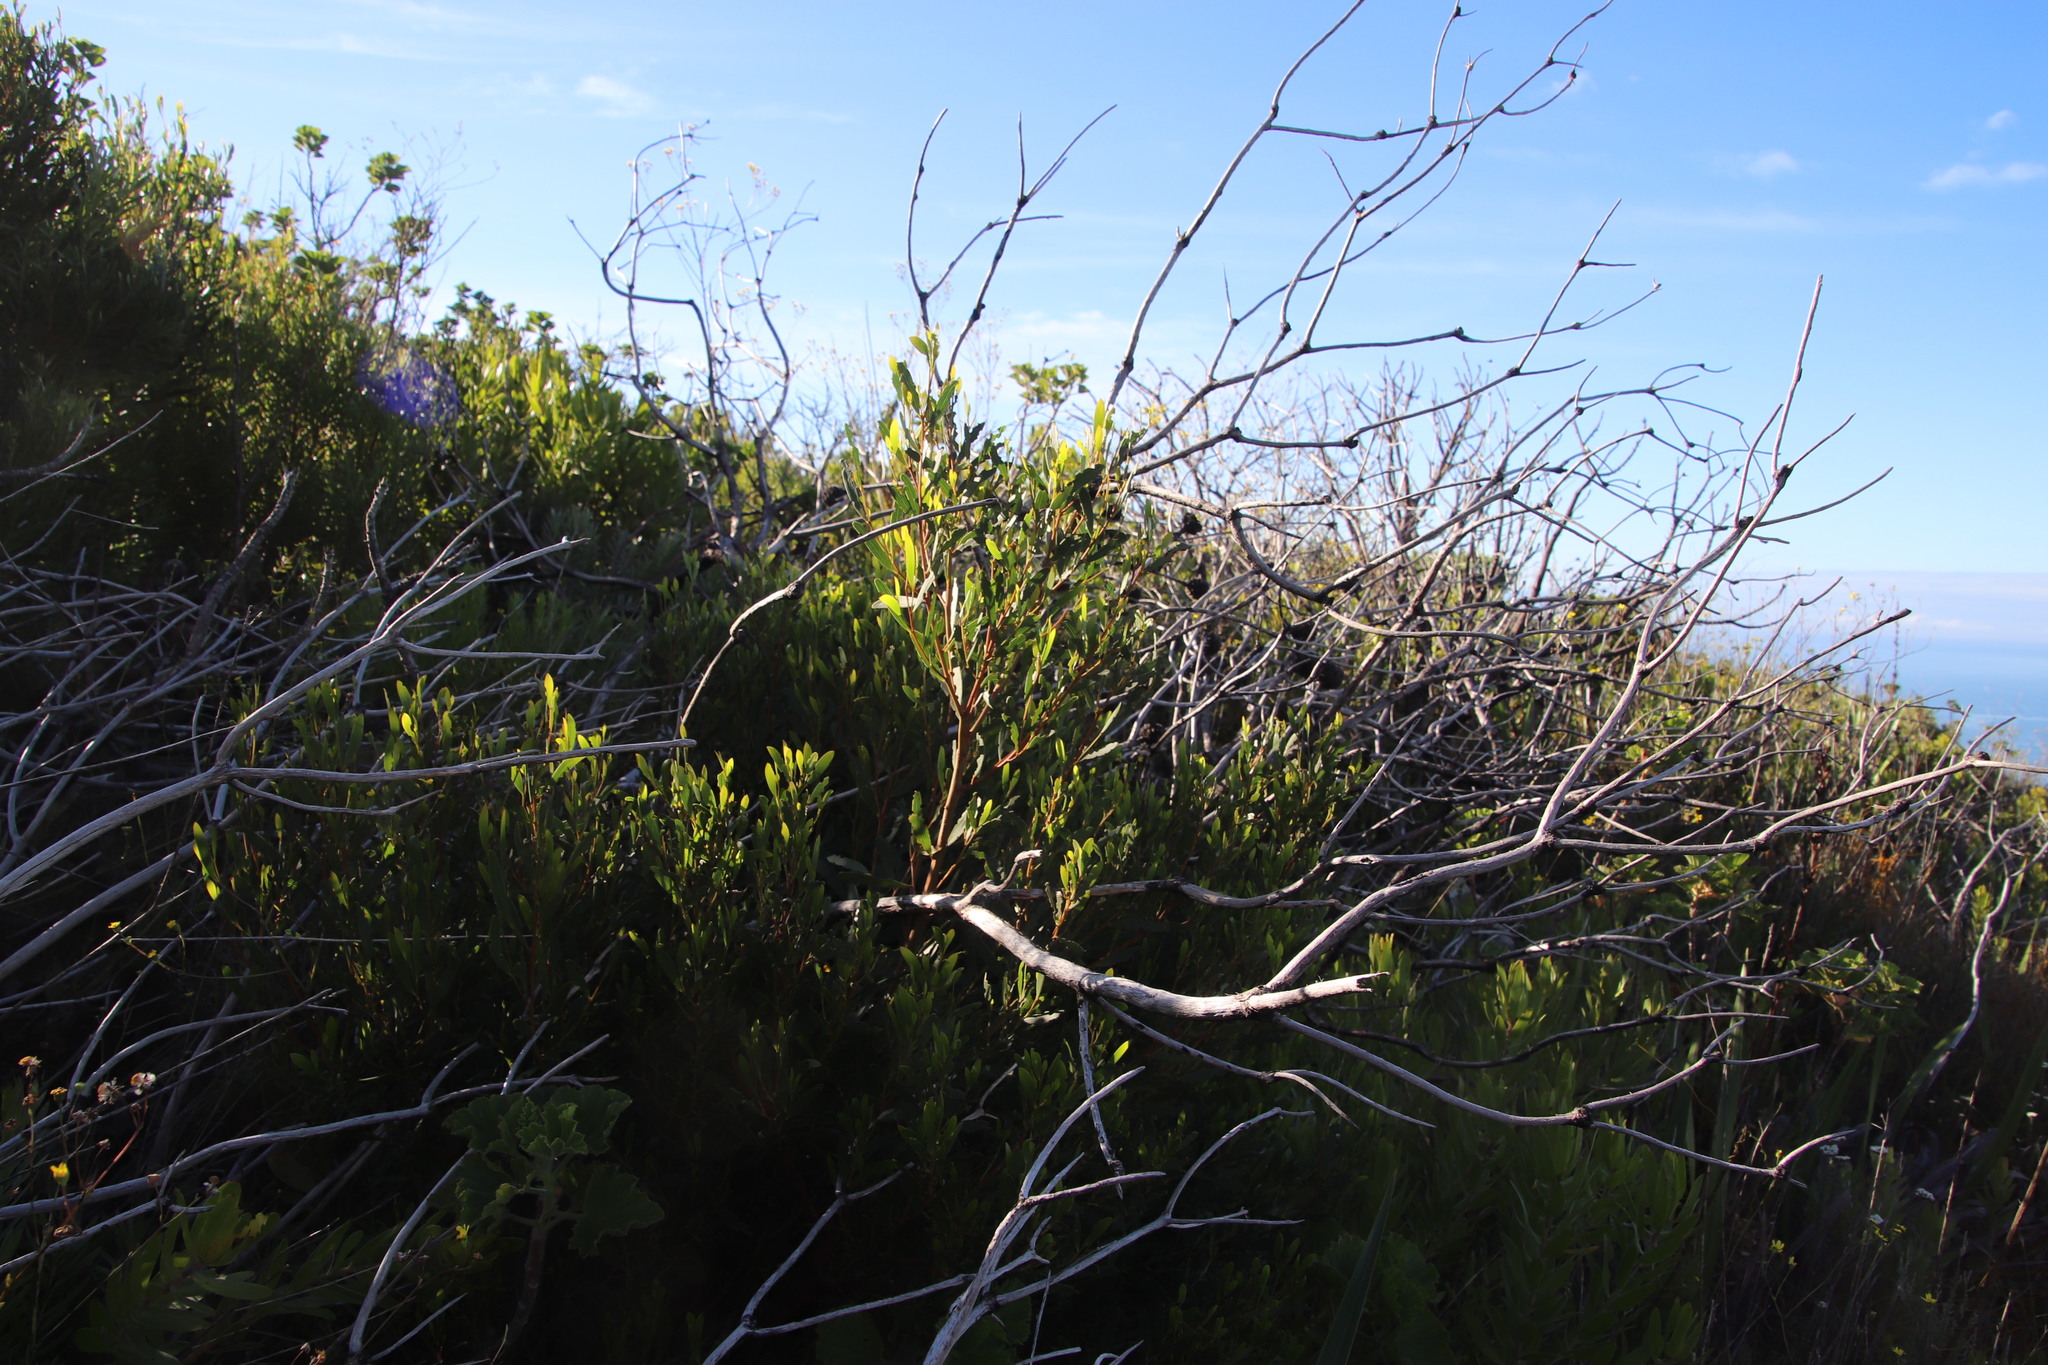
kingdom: Plantae
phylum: Tracheophyta
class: Magnoliopsida
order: Fabales
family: Fabaceae
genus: Acacia
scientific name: Acacia cyclops
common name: Coastal wattle
